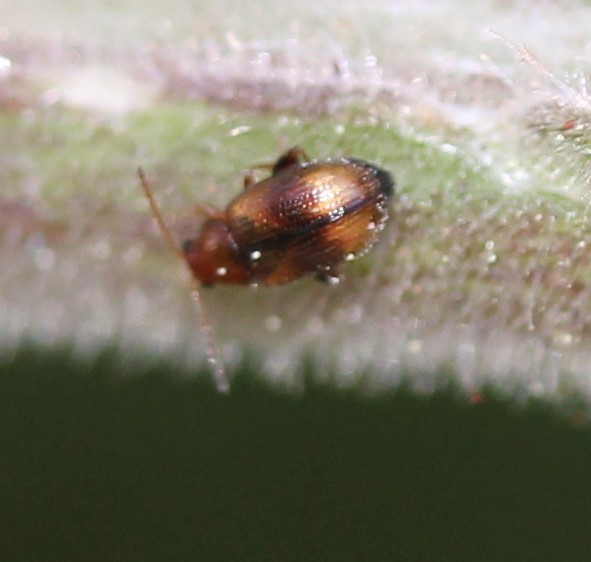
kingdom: Animalia
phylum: Arthropoda
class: Insecta
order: Coleoptera
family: Chrysomelidae
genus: Epitrix
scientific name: Epitrix hirtipennis
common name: Tobacco flea beetle
